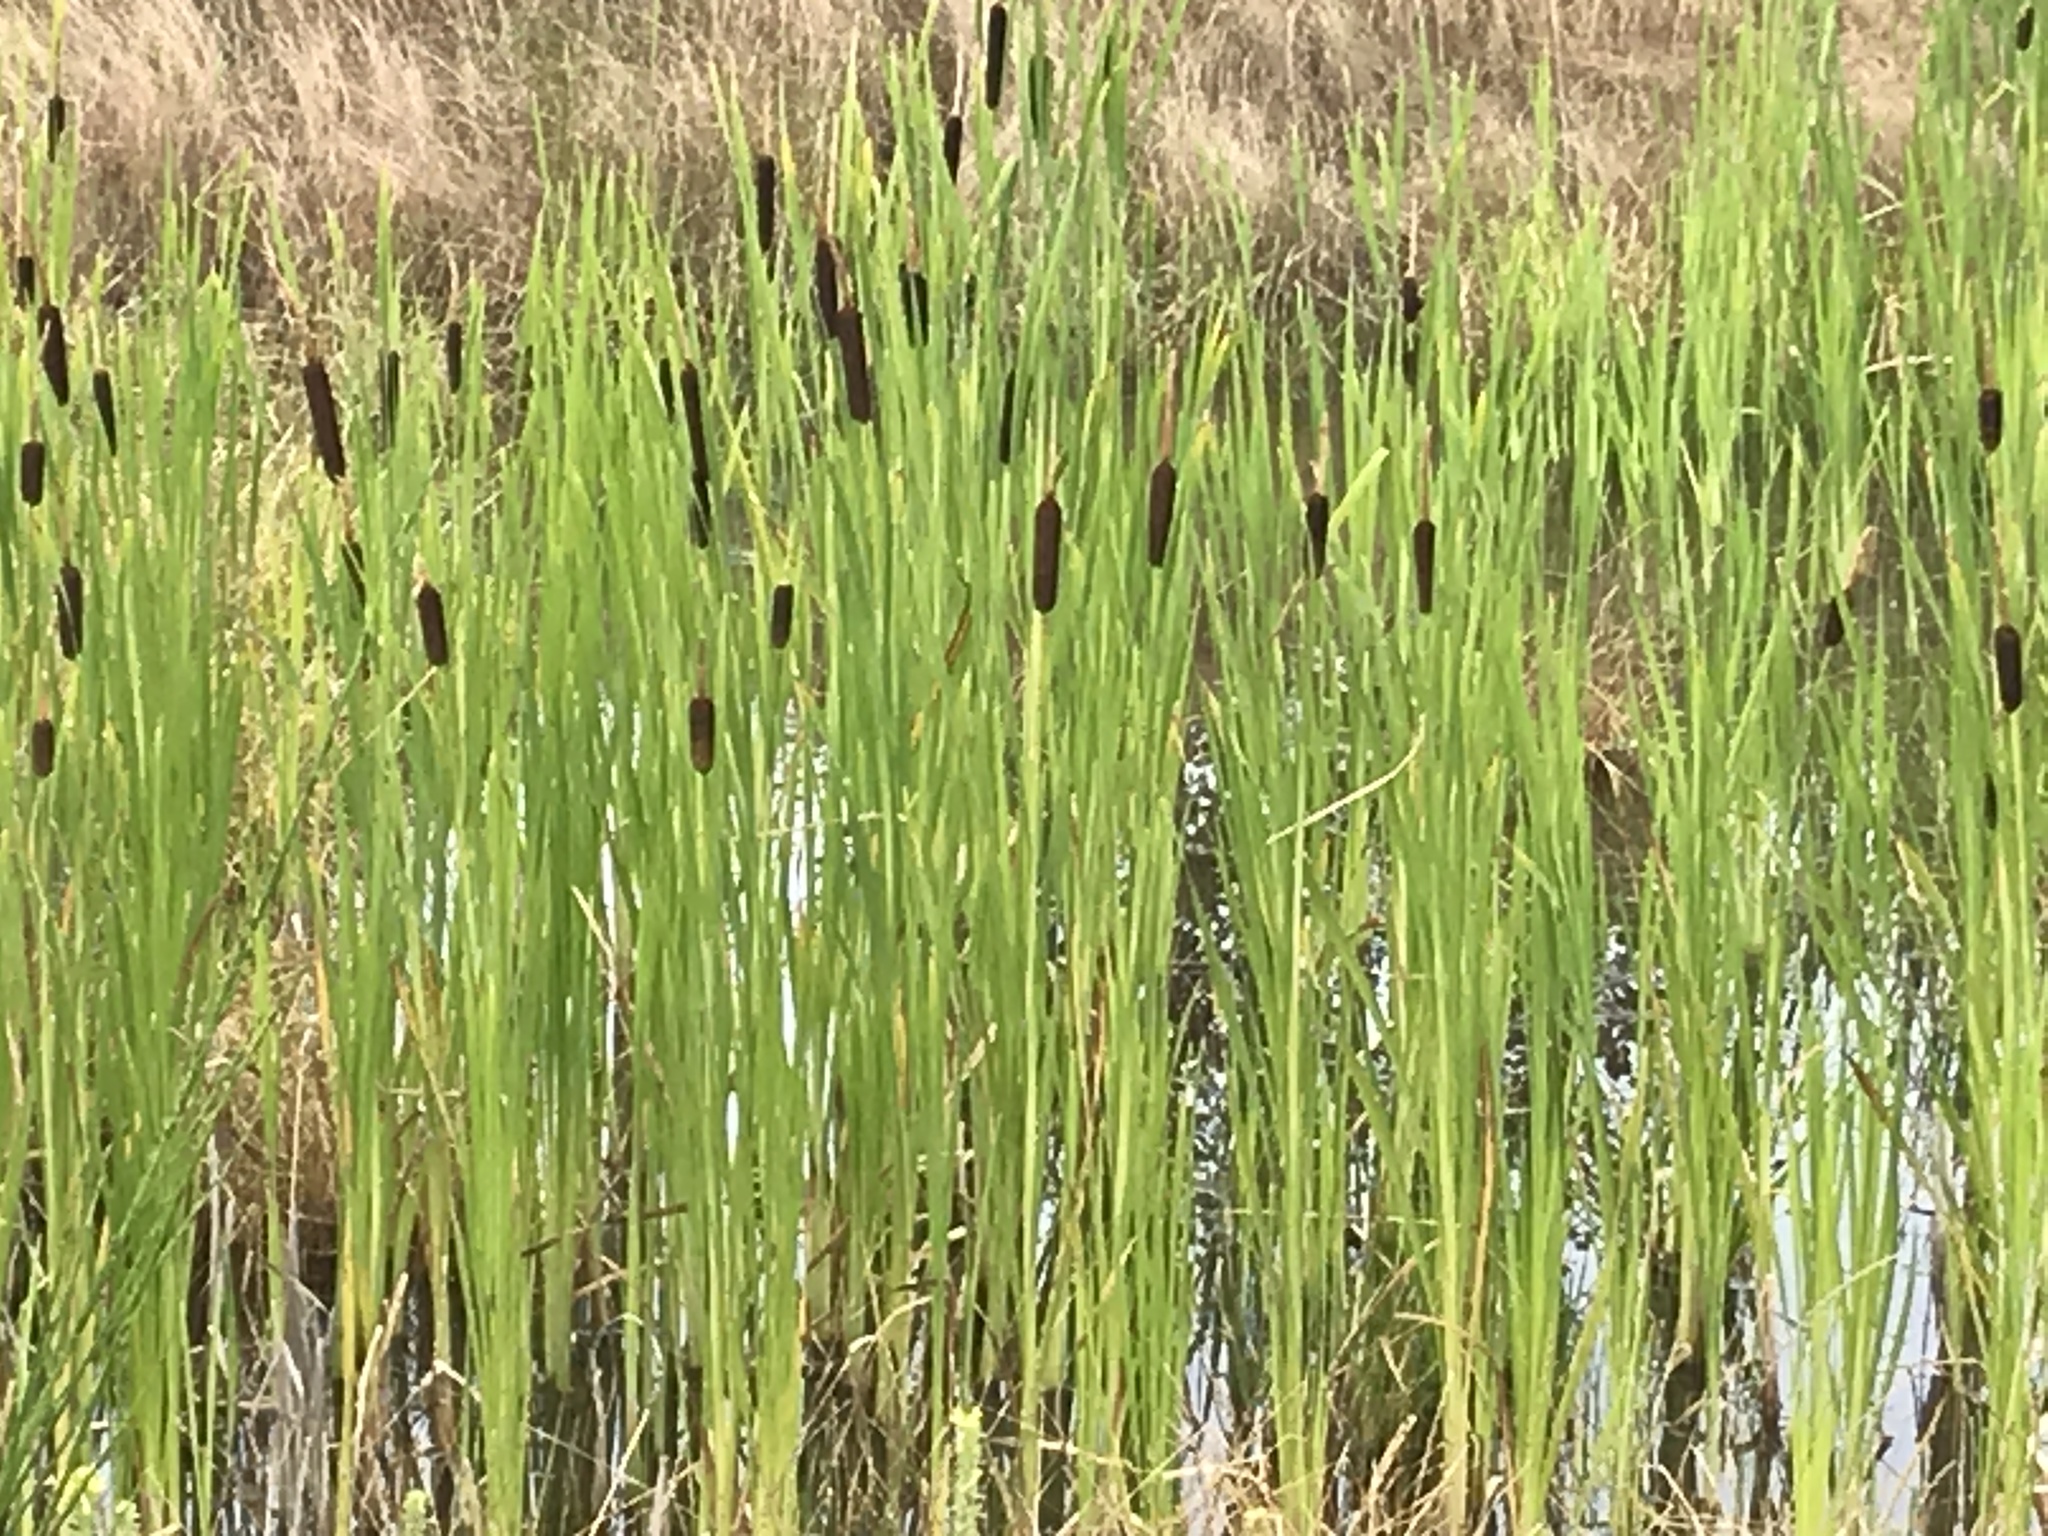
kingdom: Plantae
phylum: Tracheophyta
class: Liliopsida
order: Poales
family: Typhaceae
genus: Typha
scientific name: Typha latifolia
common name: Broadleaf cattail
